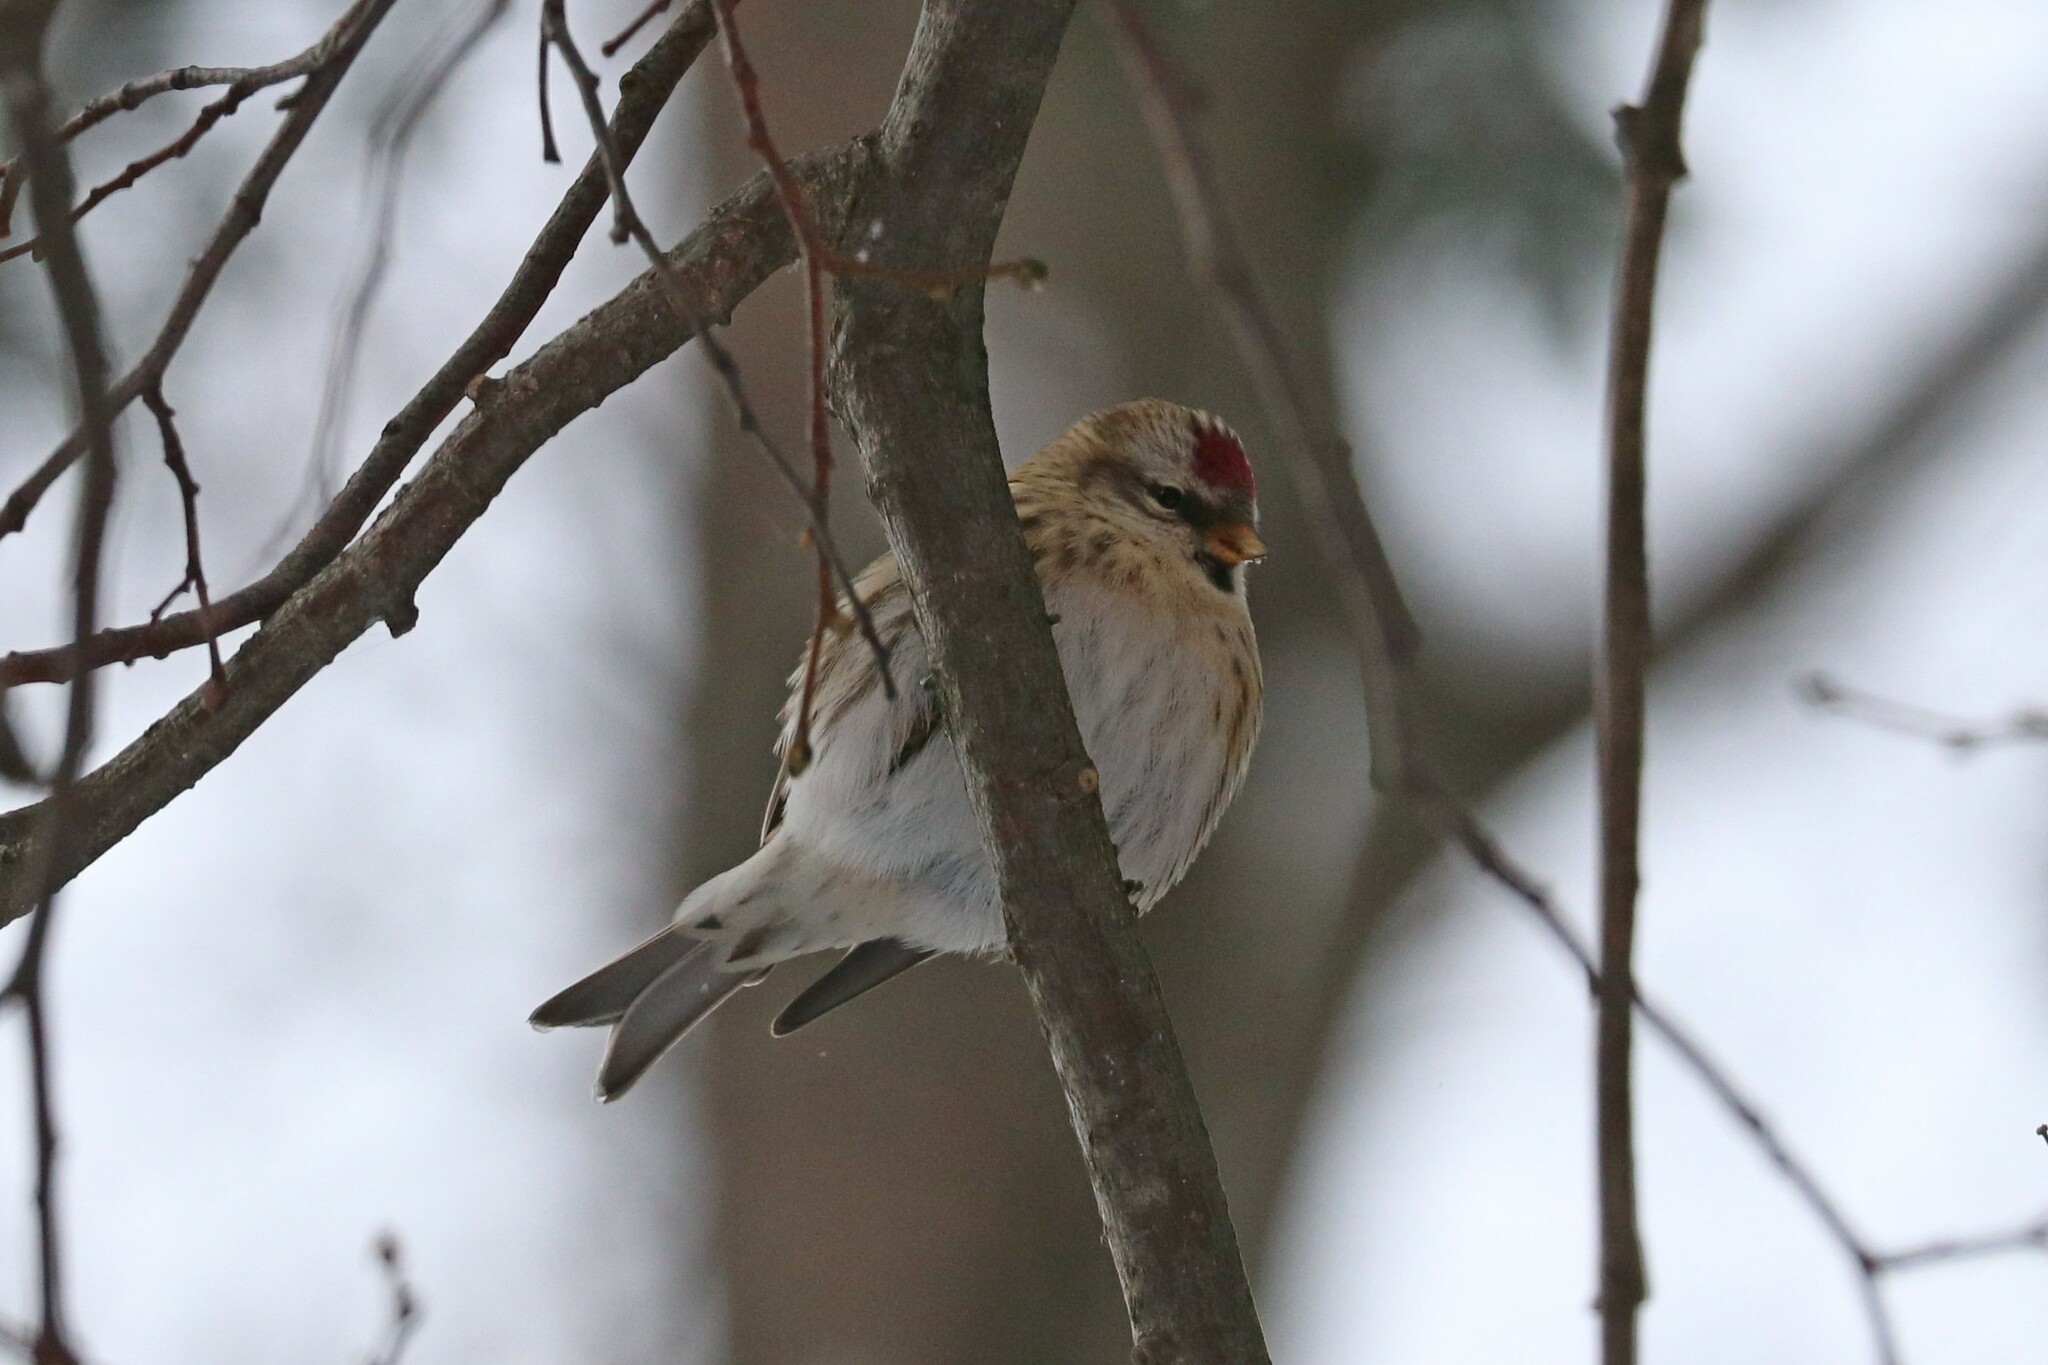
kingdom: Animalia
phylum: Chordata
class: Aves
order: Passeriformes
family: Fringillidae
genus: Acanthis
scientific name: Acanthis flammea
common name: Common redpoll
